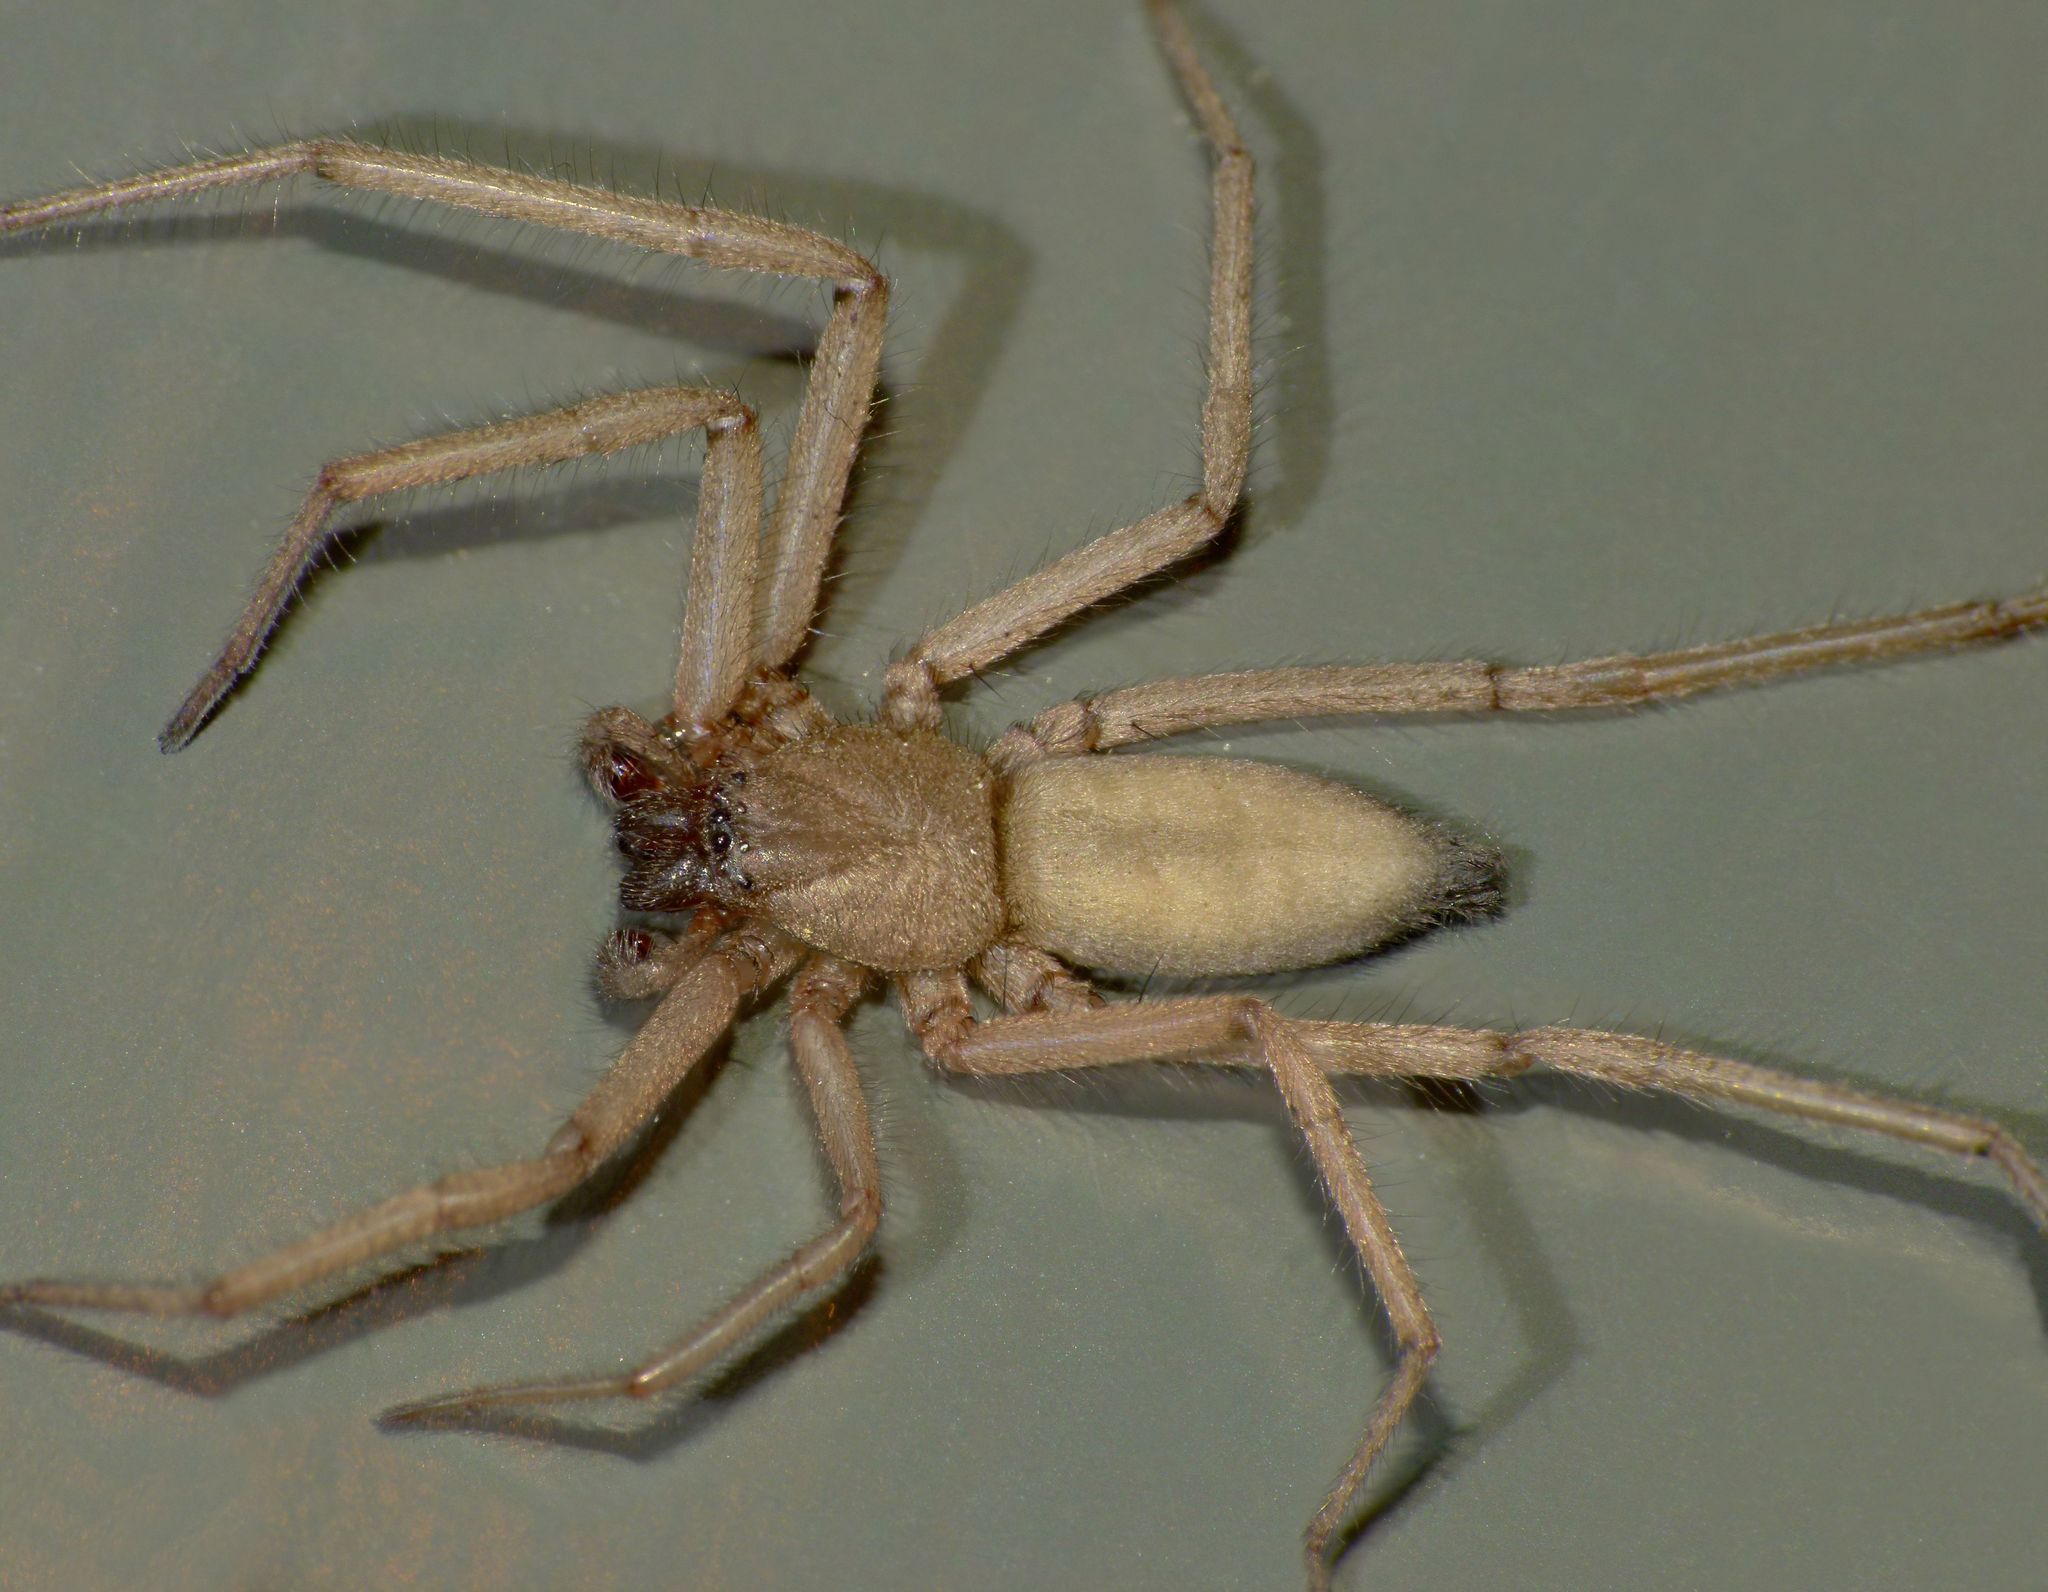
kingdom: Animalia
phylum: Arthropoda
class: Arachnida
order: Araneae
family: Trochanteriidae
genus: Hemicloea
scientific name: Hemicloea rogenhoferi
